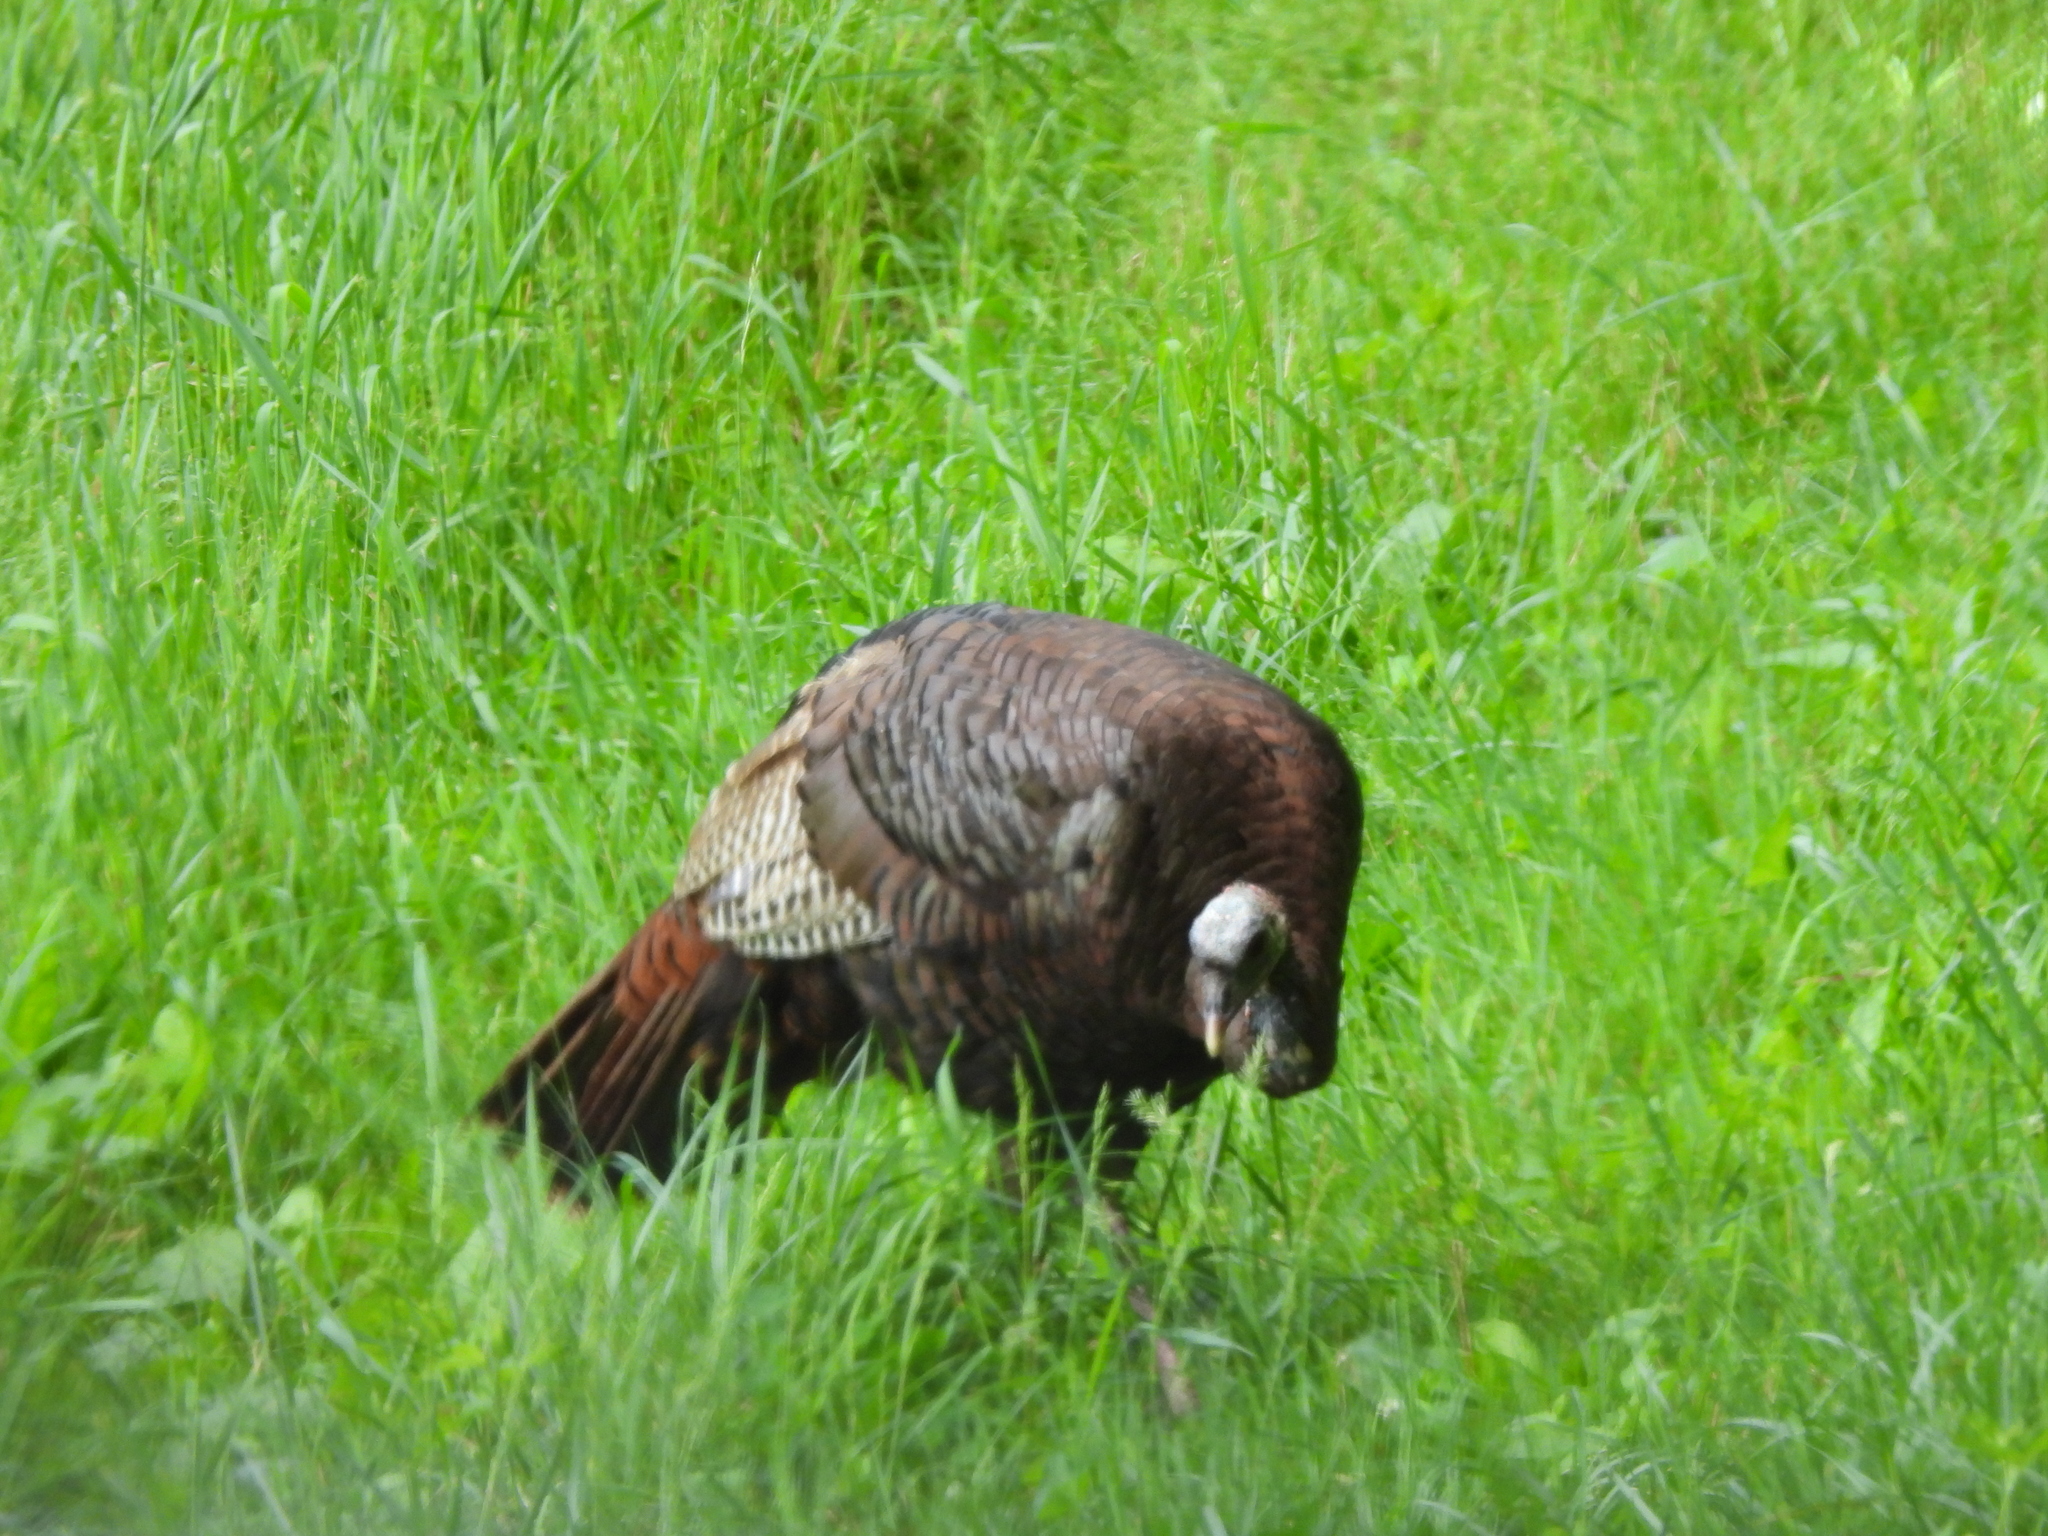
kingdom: Animalia
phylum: Chordata
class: Aves
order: Galliformes
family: Phasianidae
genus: Meleagris
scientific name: Meleagris gallopavo
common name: Wild turkey
